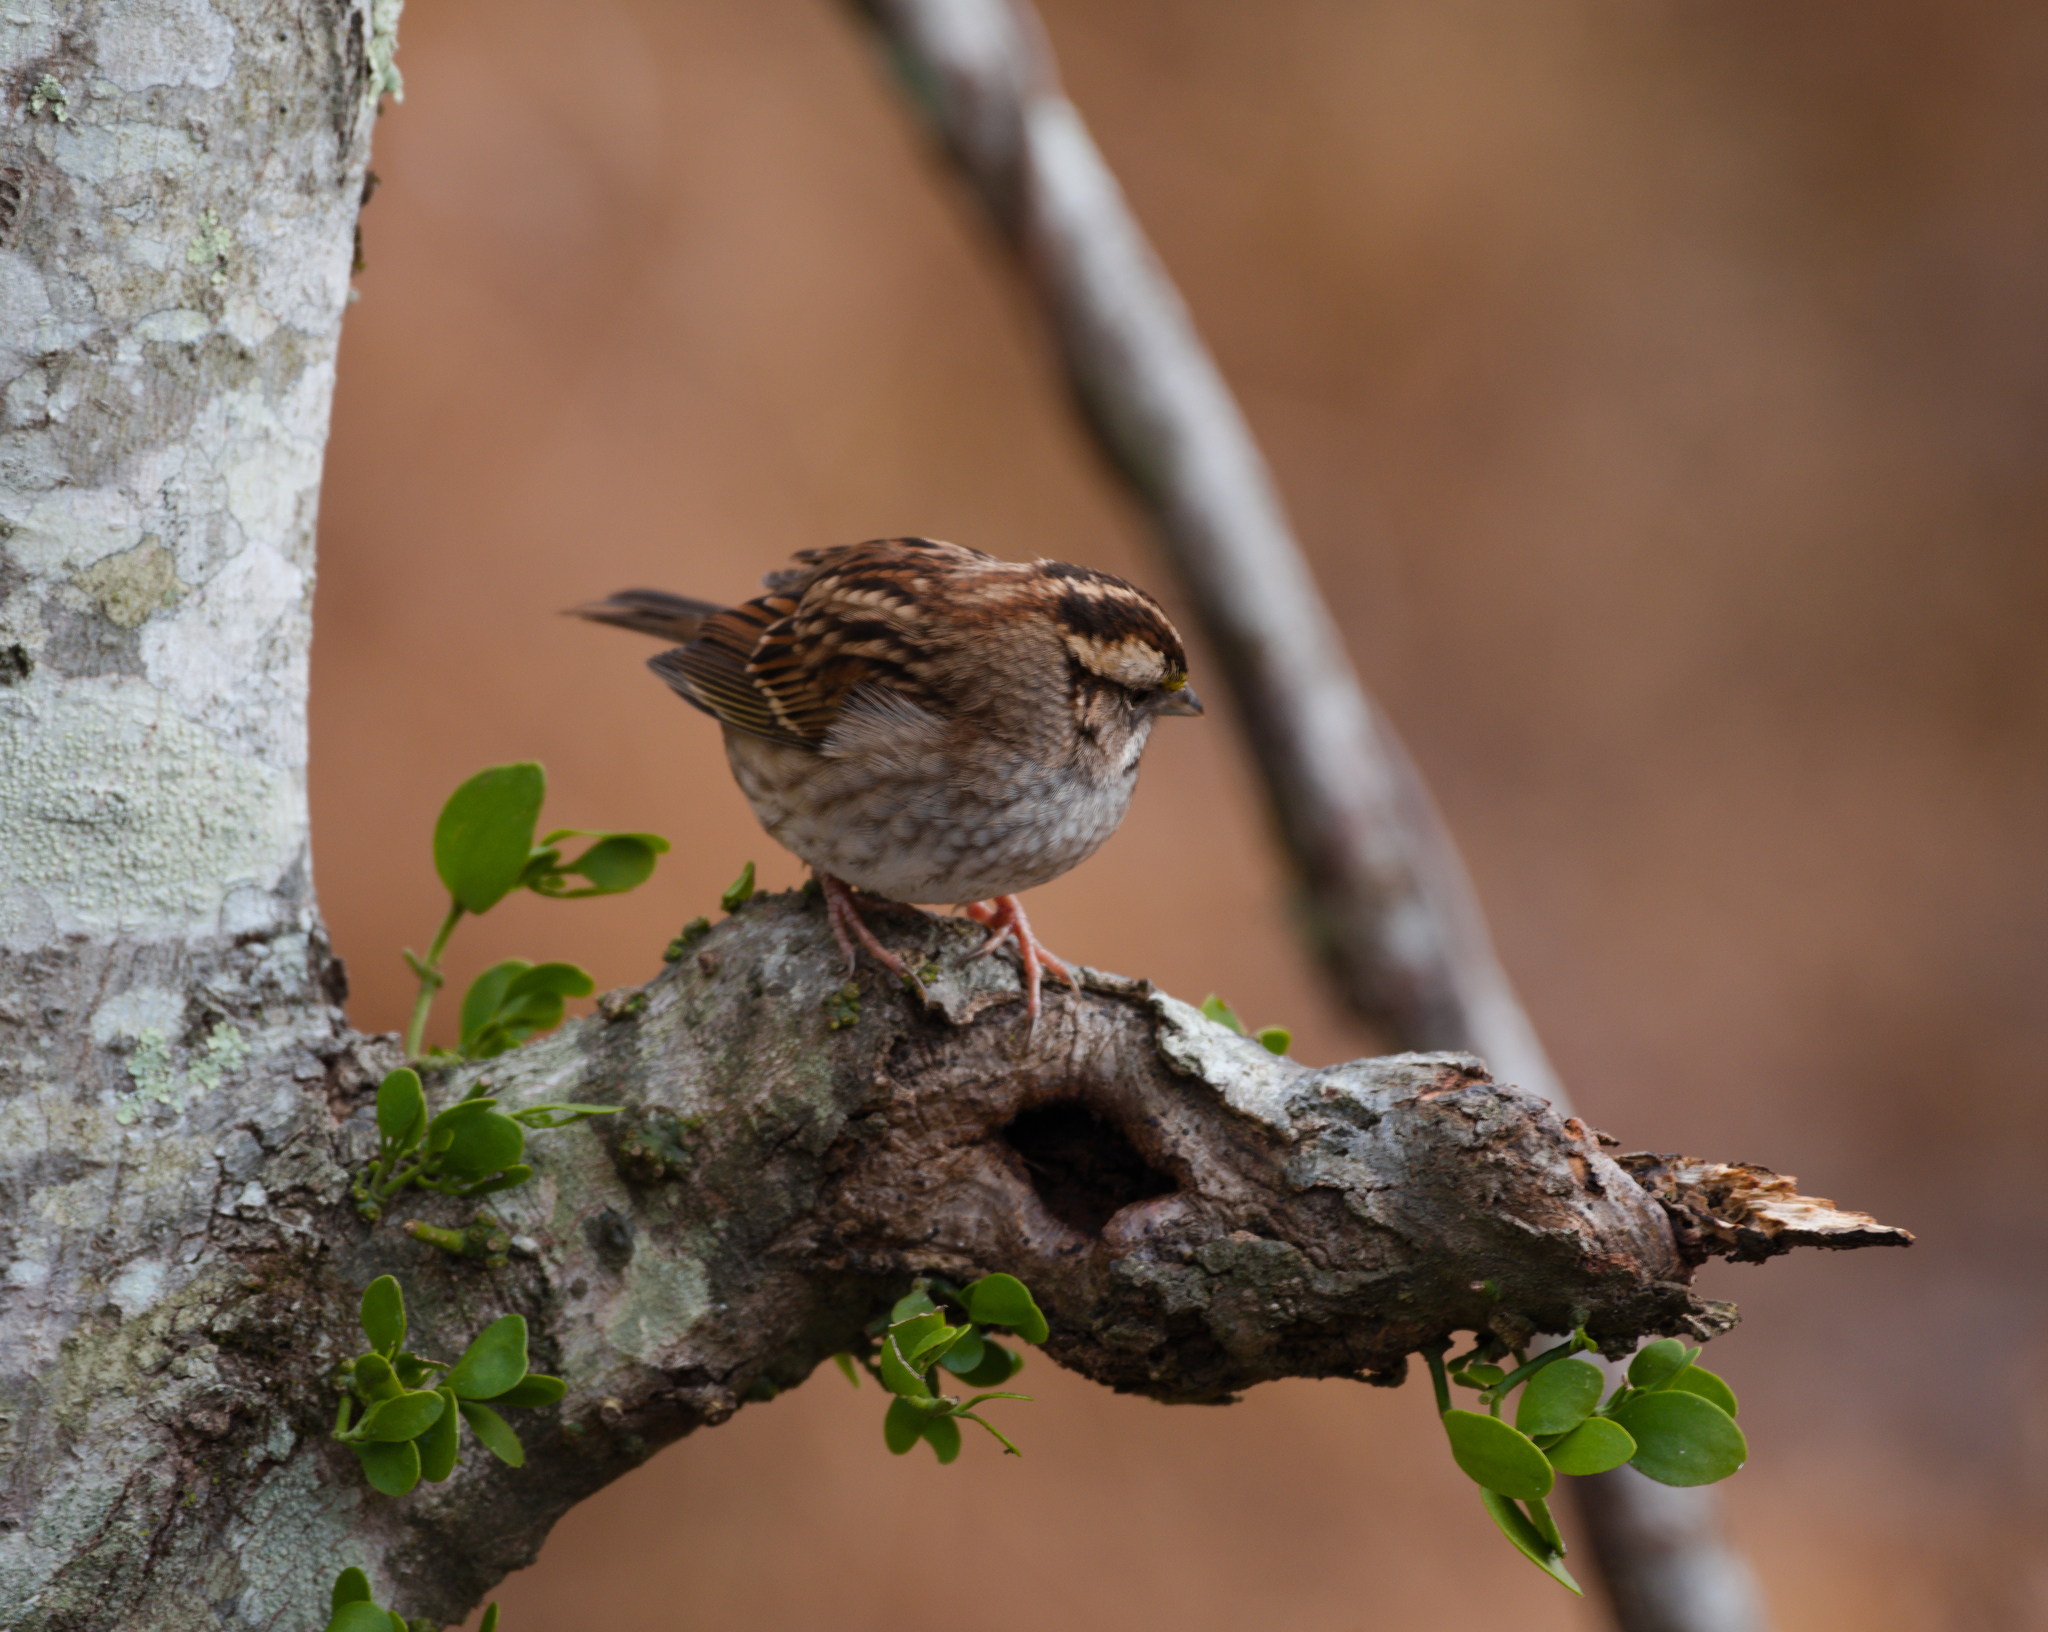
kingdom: Animalia
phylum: Chordata
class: Aves
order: Passeriformes
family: Passerellidae
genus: Zonotrichia
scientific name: Zonotrichia albicollis
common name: White-throated sparrow
